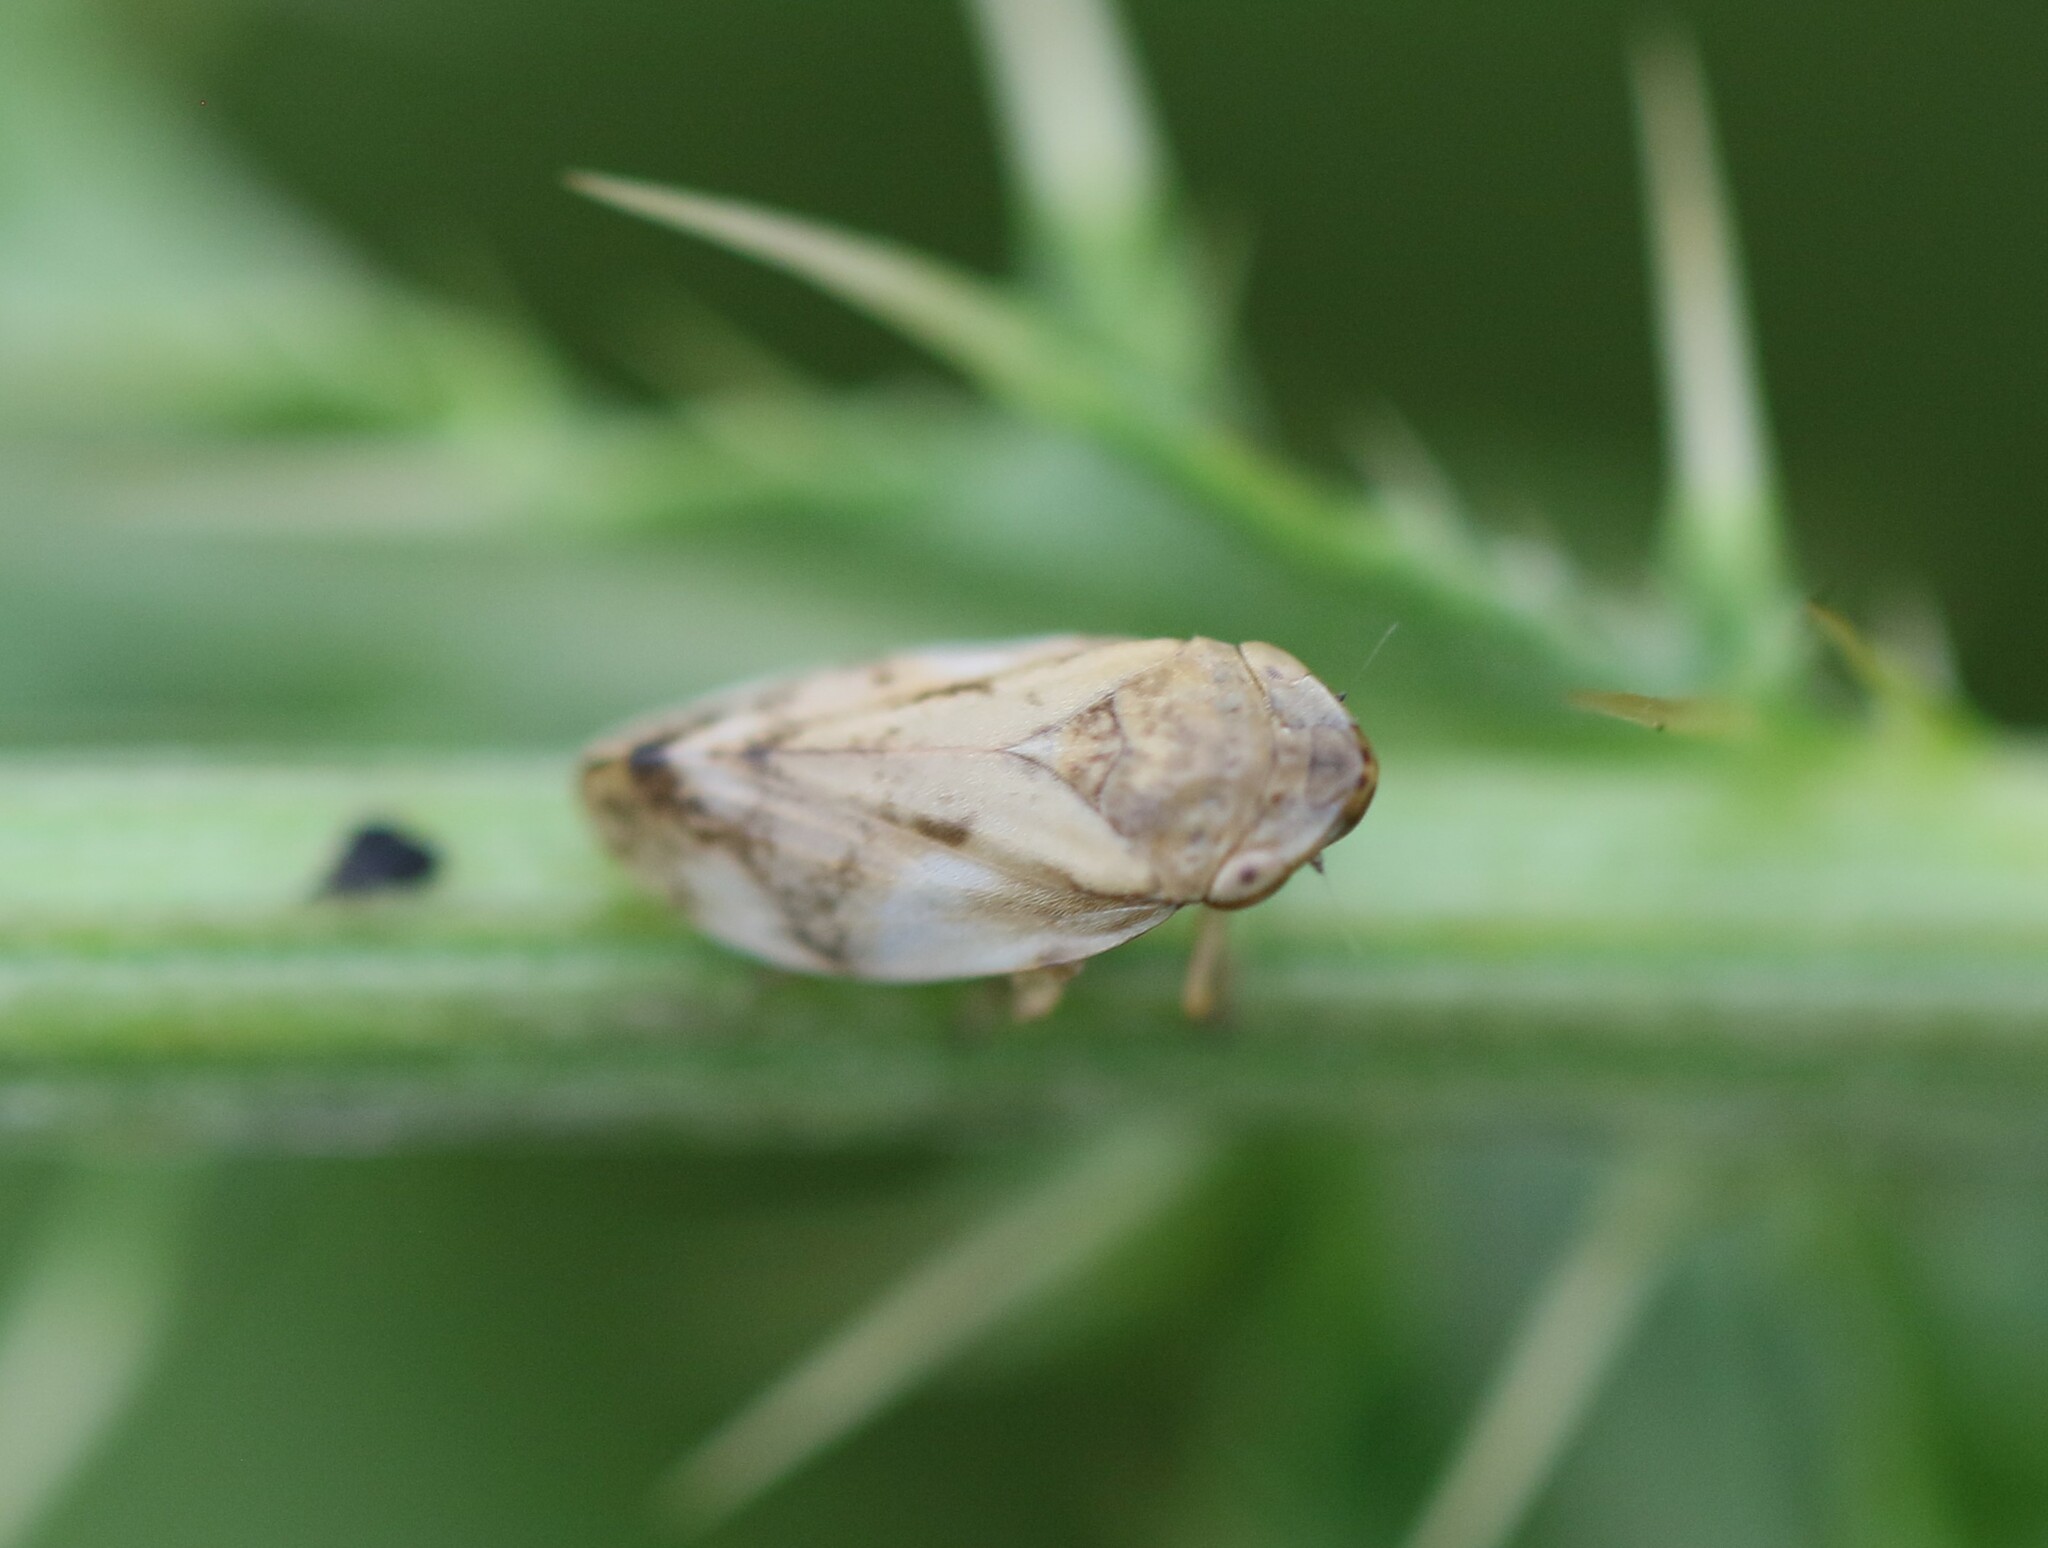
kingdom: Animalia
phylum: Arthropoda
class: Insecta
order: Hemiptera
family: Aphrophoridae
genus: Philaenus
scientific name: Philaenus spumarius
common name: Meadow spittlebug
